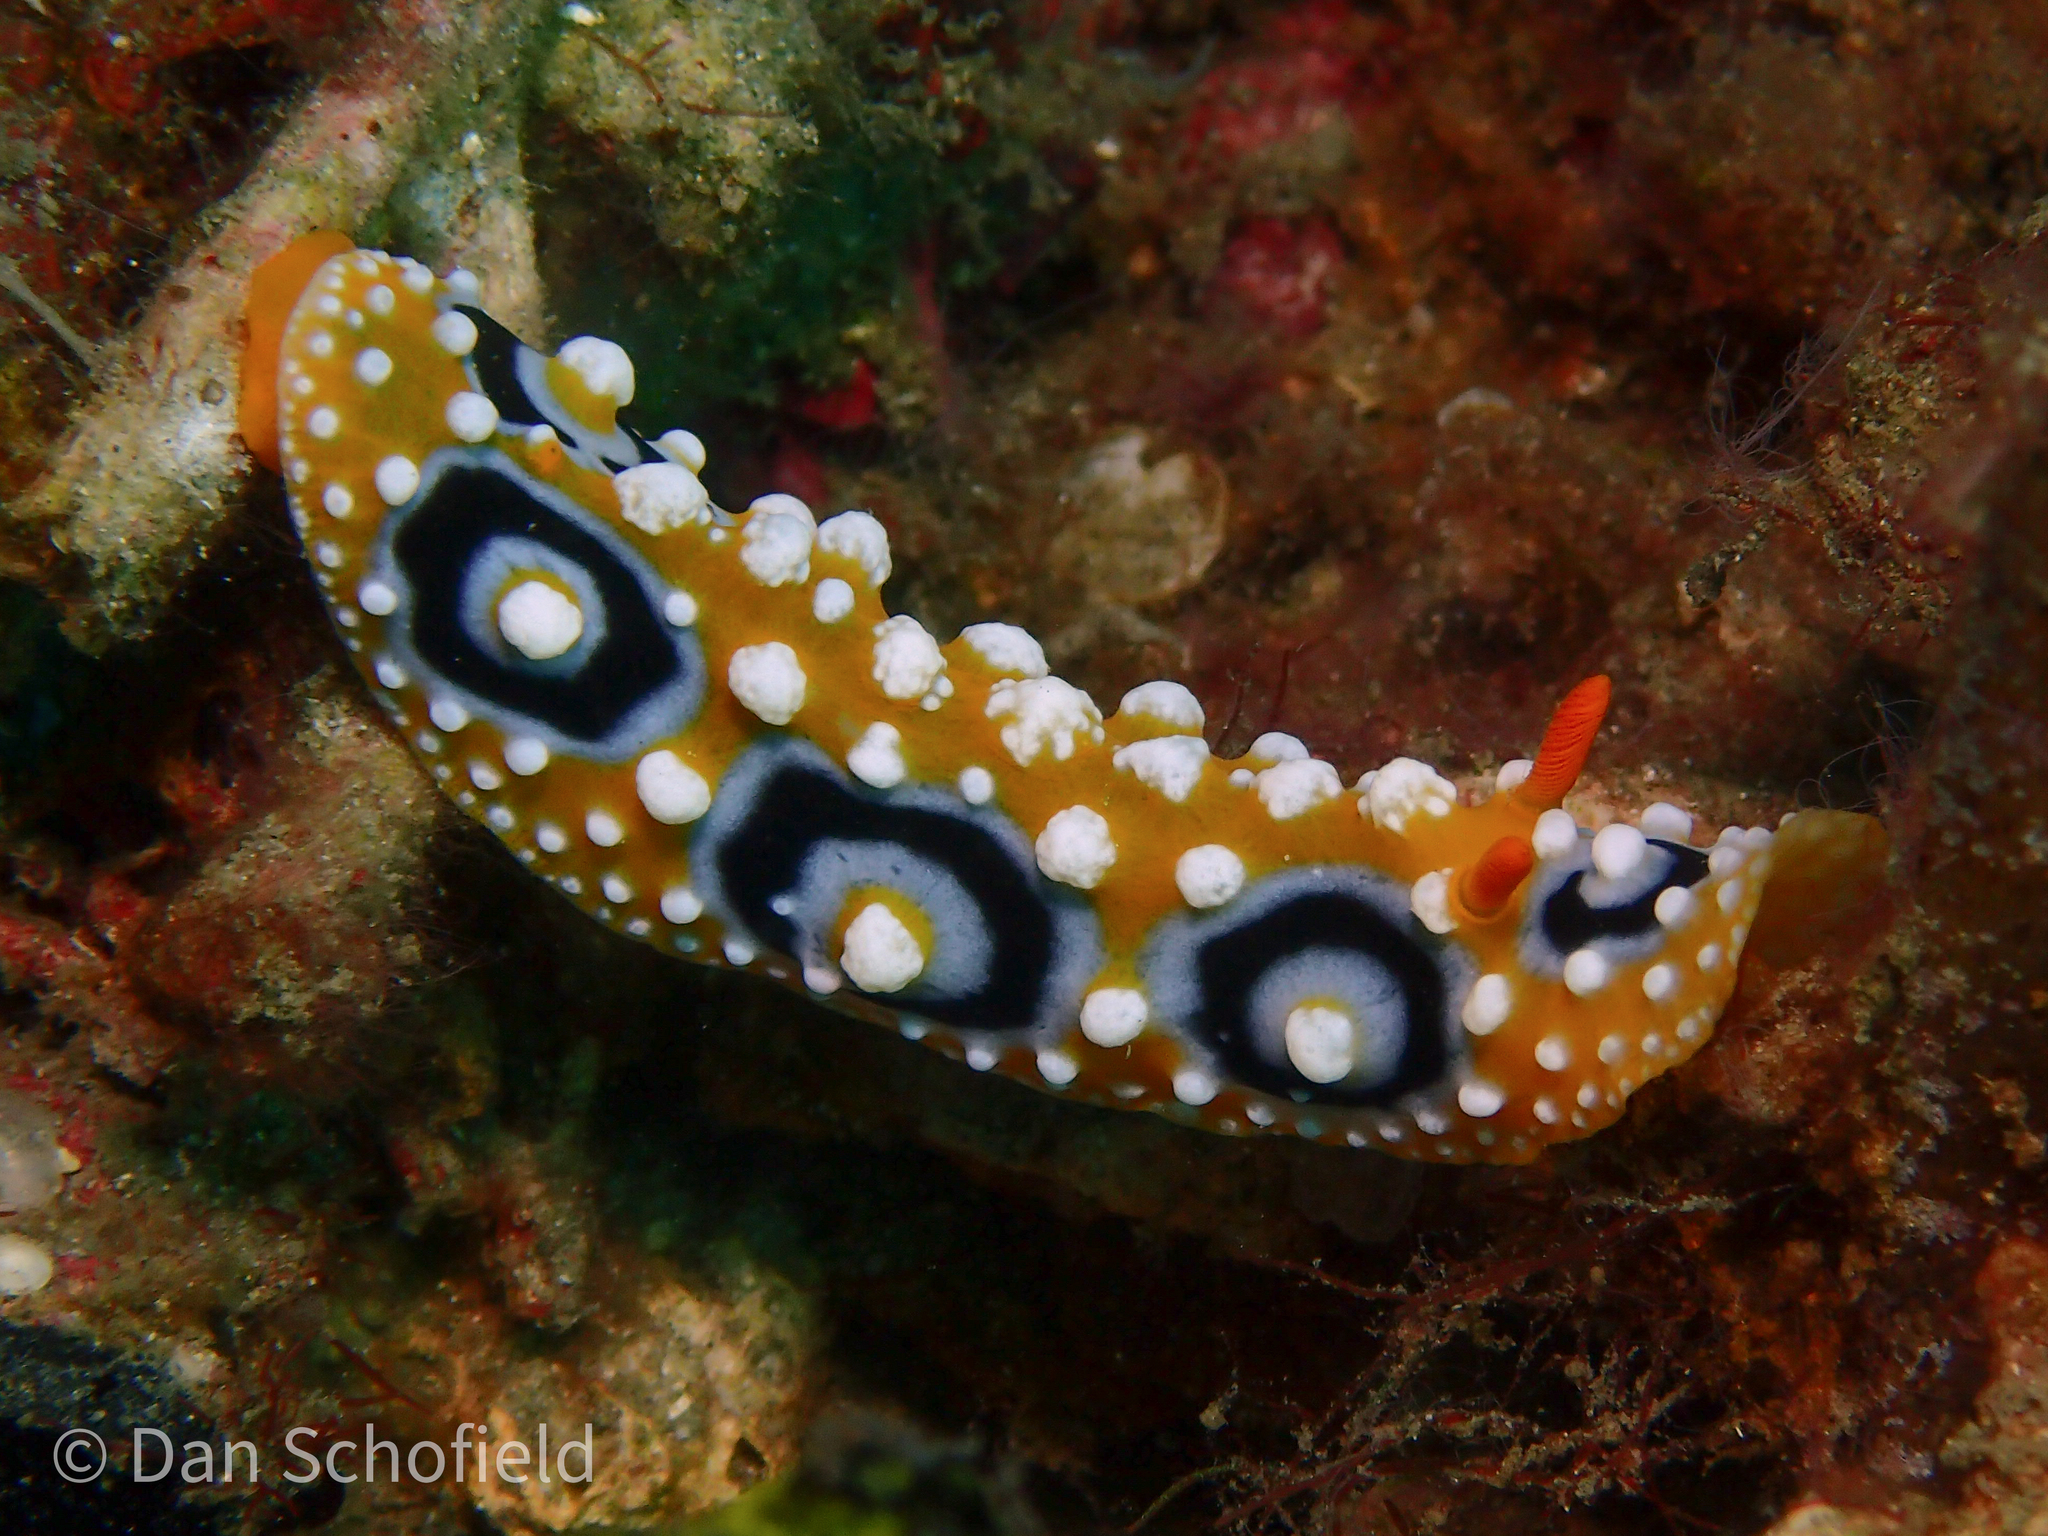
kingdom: Animalia
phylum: Mollusca
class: Gastropoda
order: Nudibranchia
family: Phyllidiidae
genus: Phyllidia
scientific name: Phyllidia ocellata
